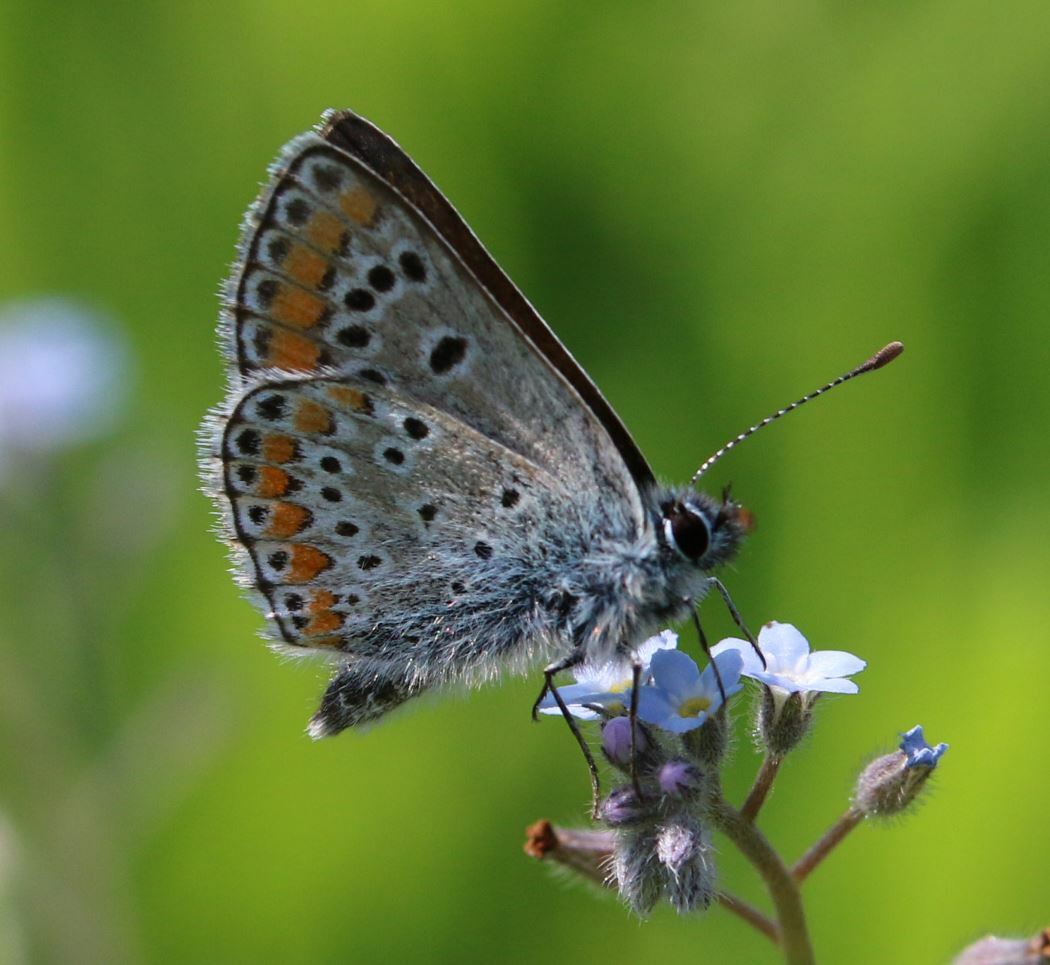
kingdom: Animalia
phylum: Arthropoda
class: Insecta
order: Lepidoptera
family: Lycaenidae
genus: Aricia
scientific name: Aricia agestis
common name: Brown argus
